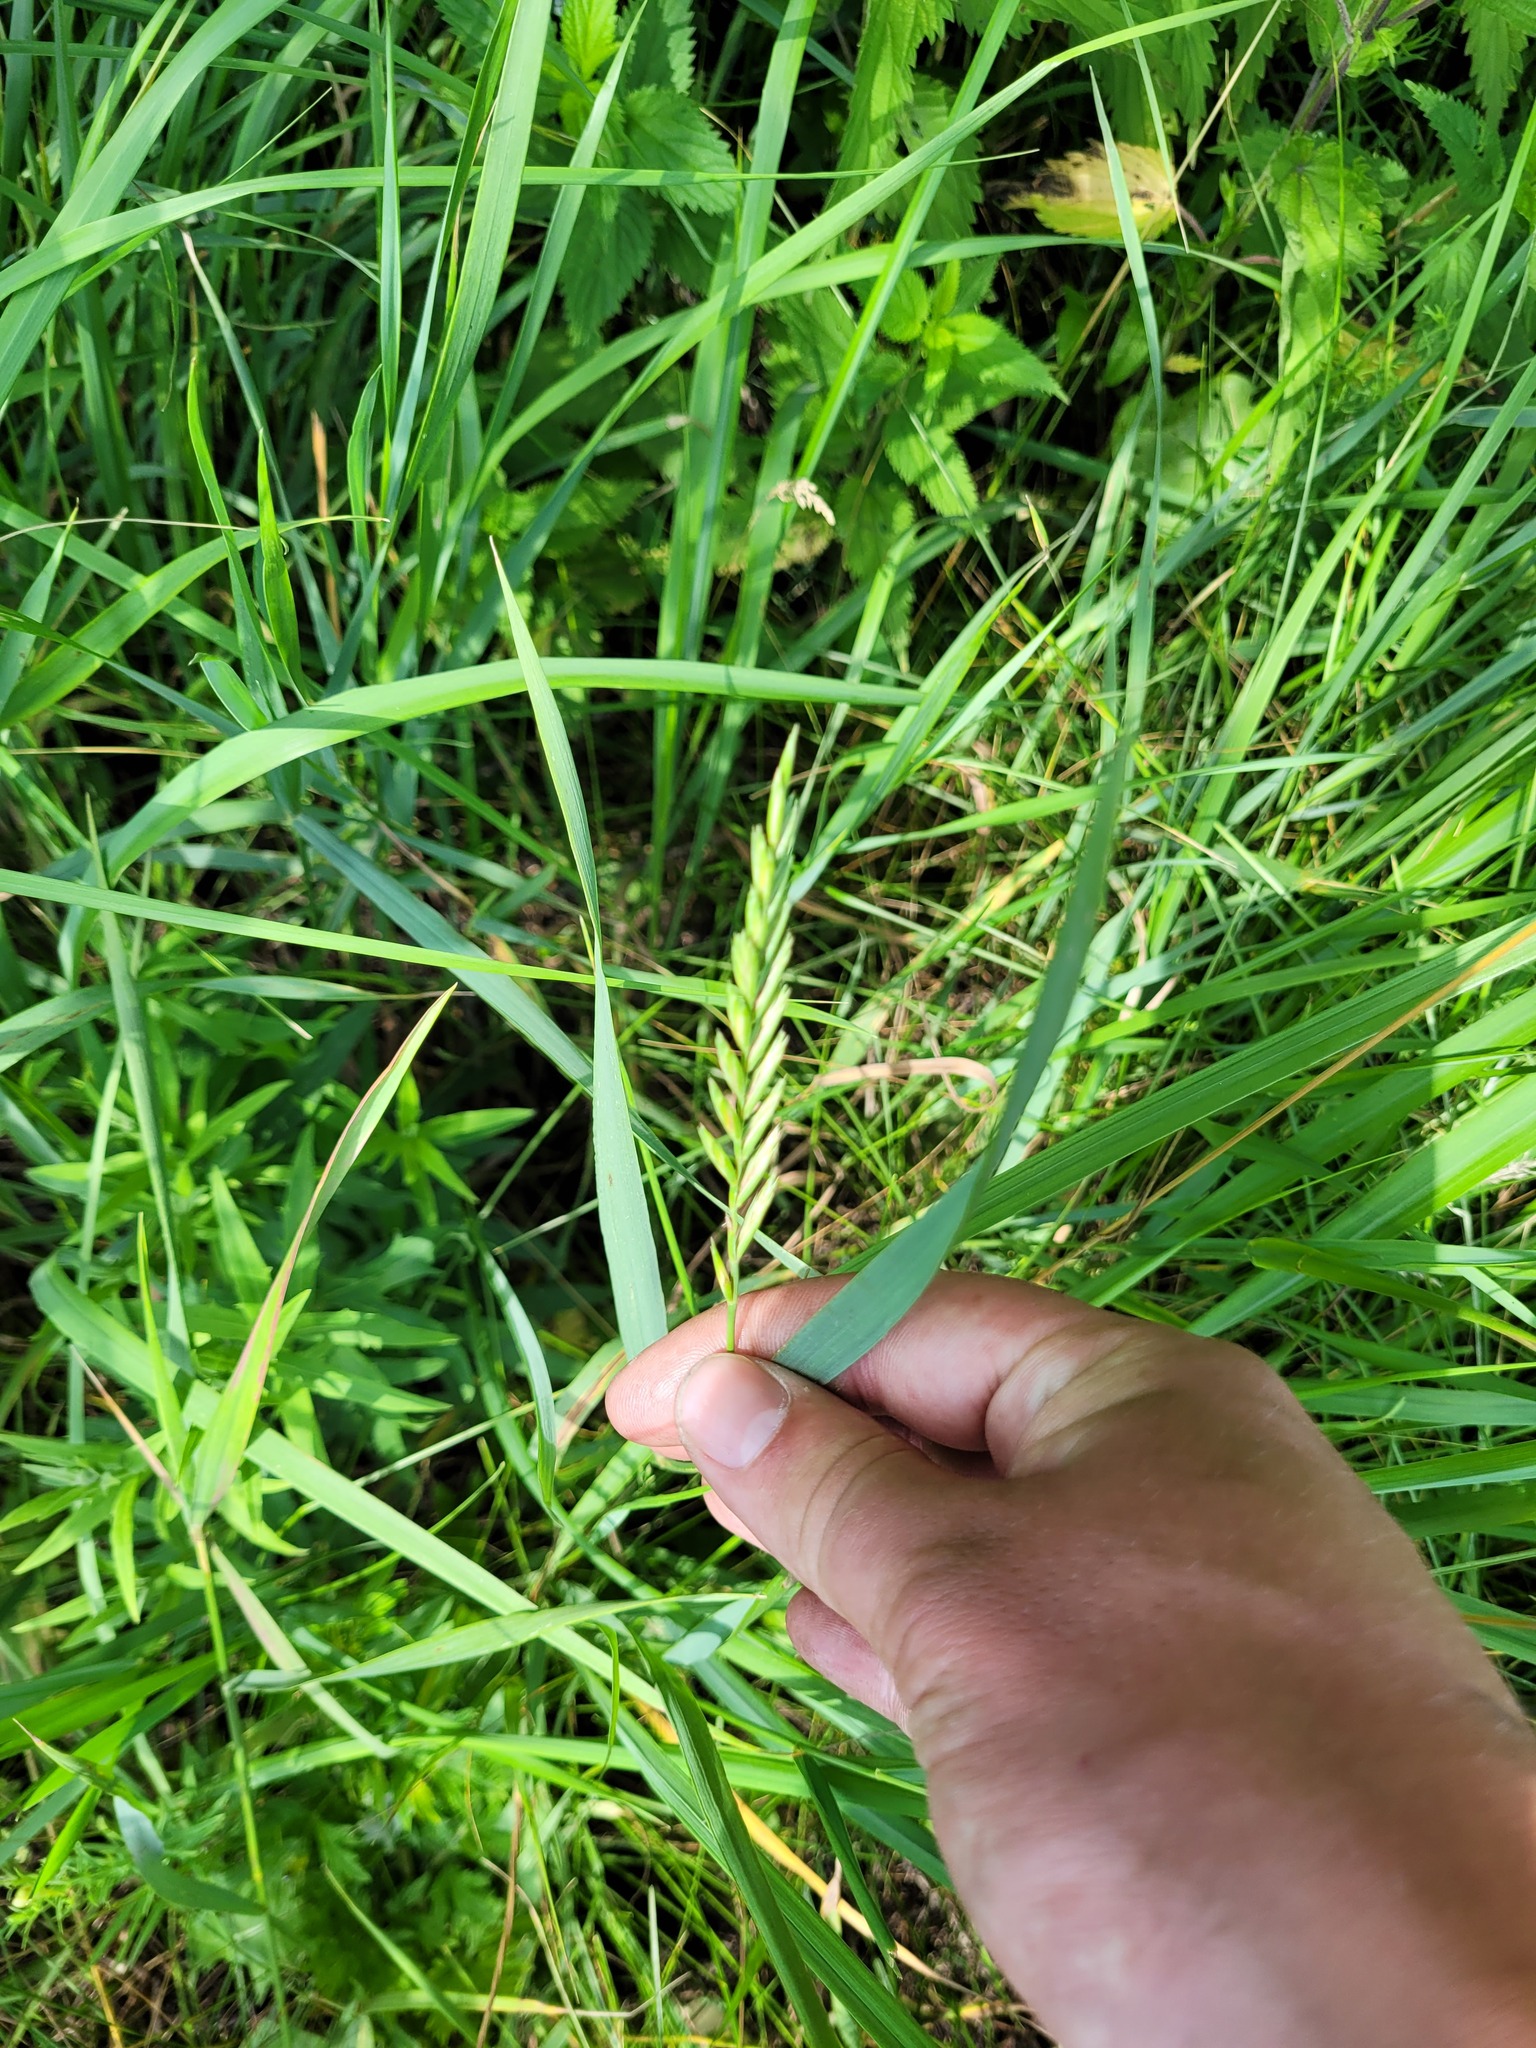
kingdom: Plantae
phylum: Tracheophyta
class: Liliopsida
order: Poales
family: Poaceae
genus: Elymus
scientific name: Elymus repens
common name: Quackgrass
